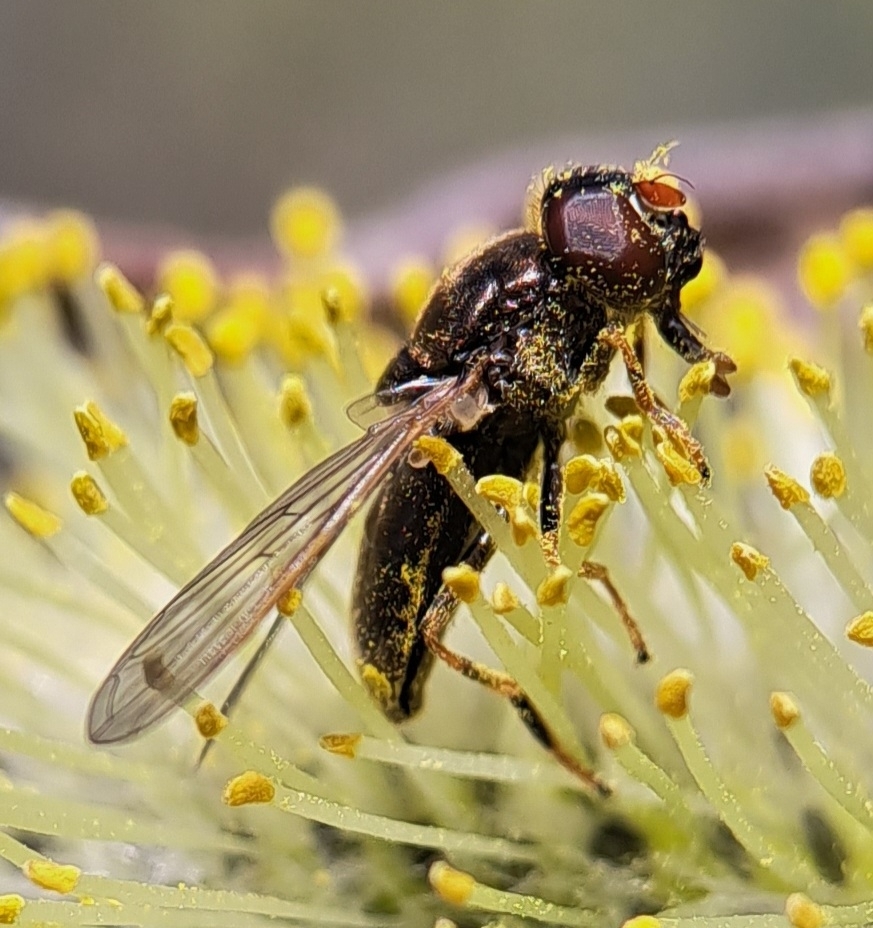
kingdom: Animalia
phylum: Arthropoda
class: Insecta
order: Diptera
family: Syrphidae
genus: Cheilosia
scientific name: Cheilosia pagana
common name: Hover fly
